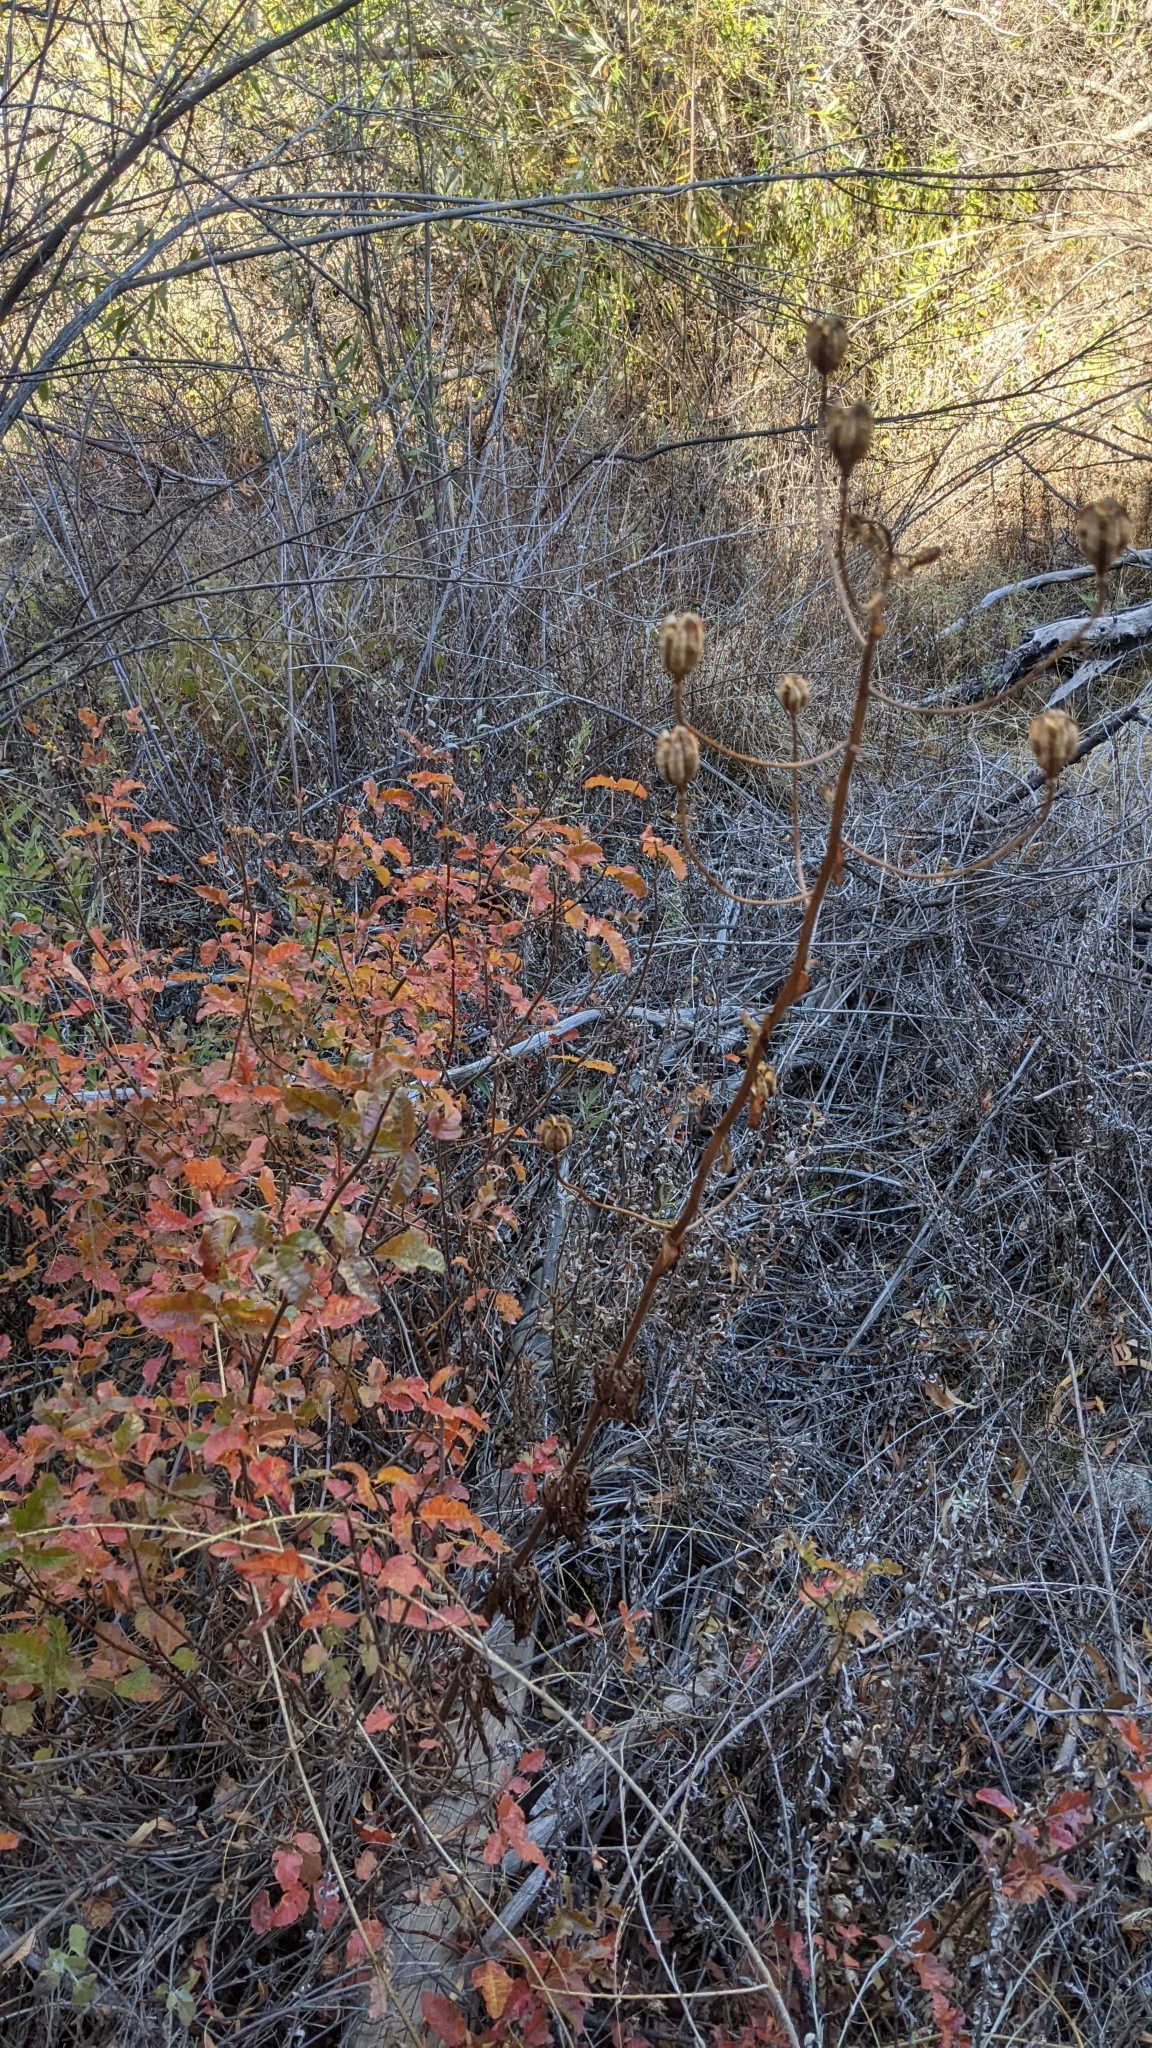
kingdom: Plantae
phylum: Tracheophyta
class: Liliopsida
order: Liliales
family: Liliaceae
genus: Lilium
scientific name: Lilium humboldtii
